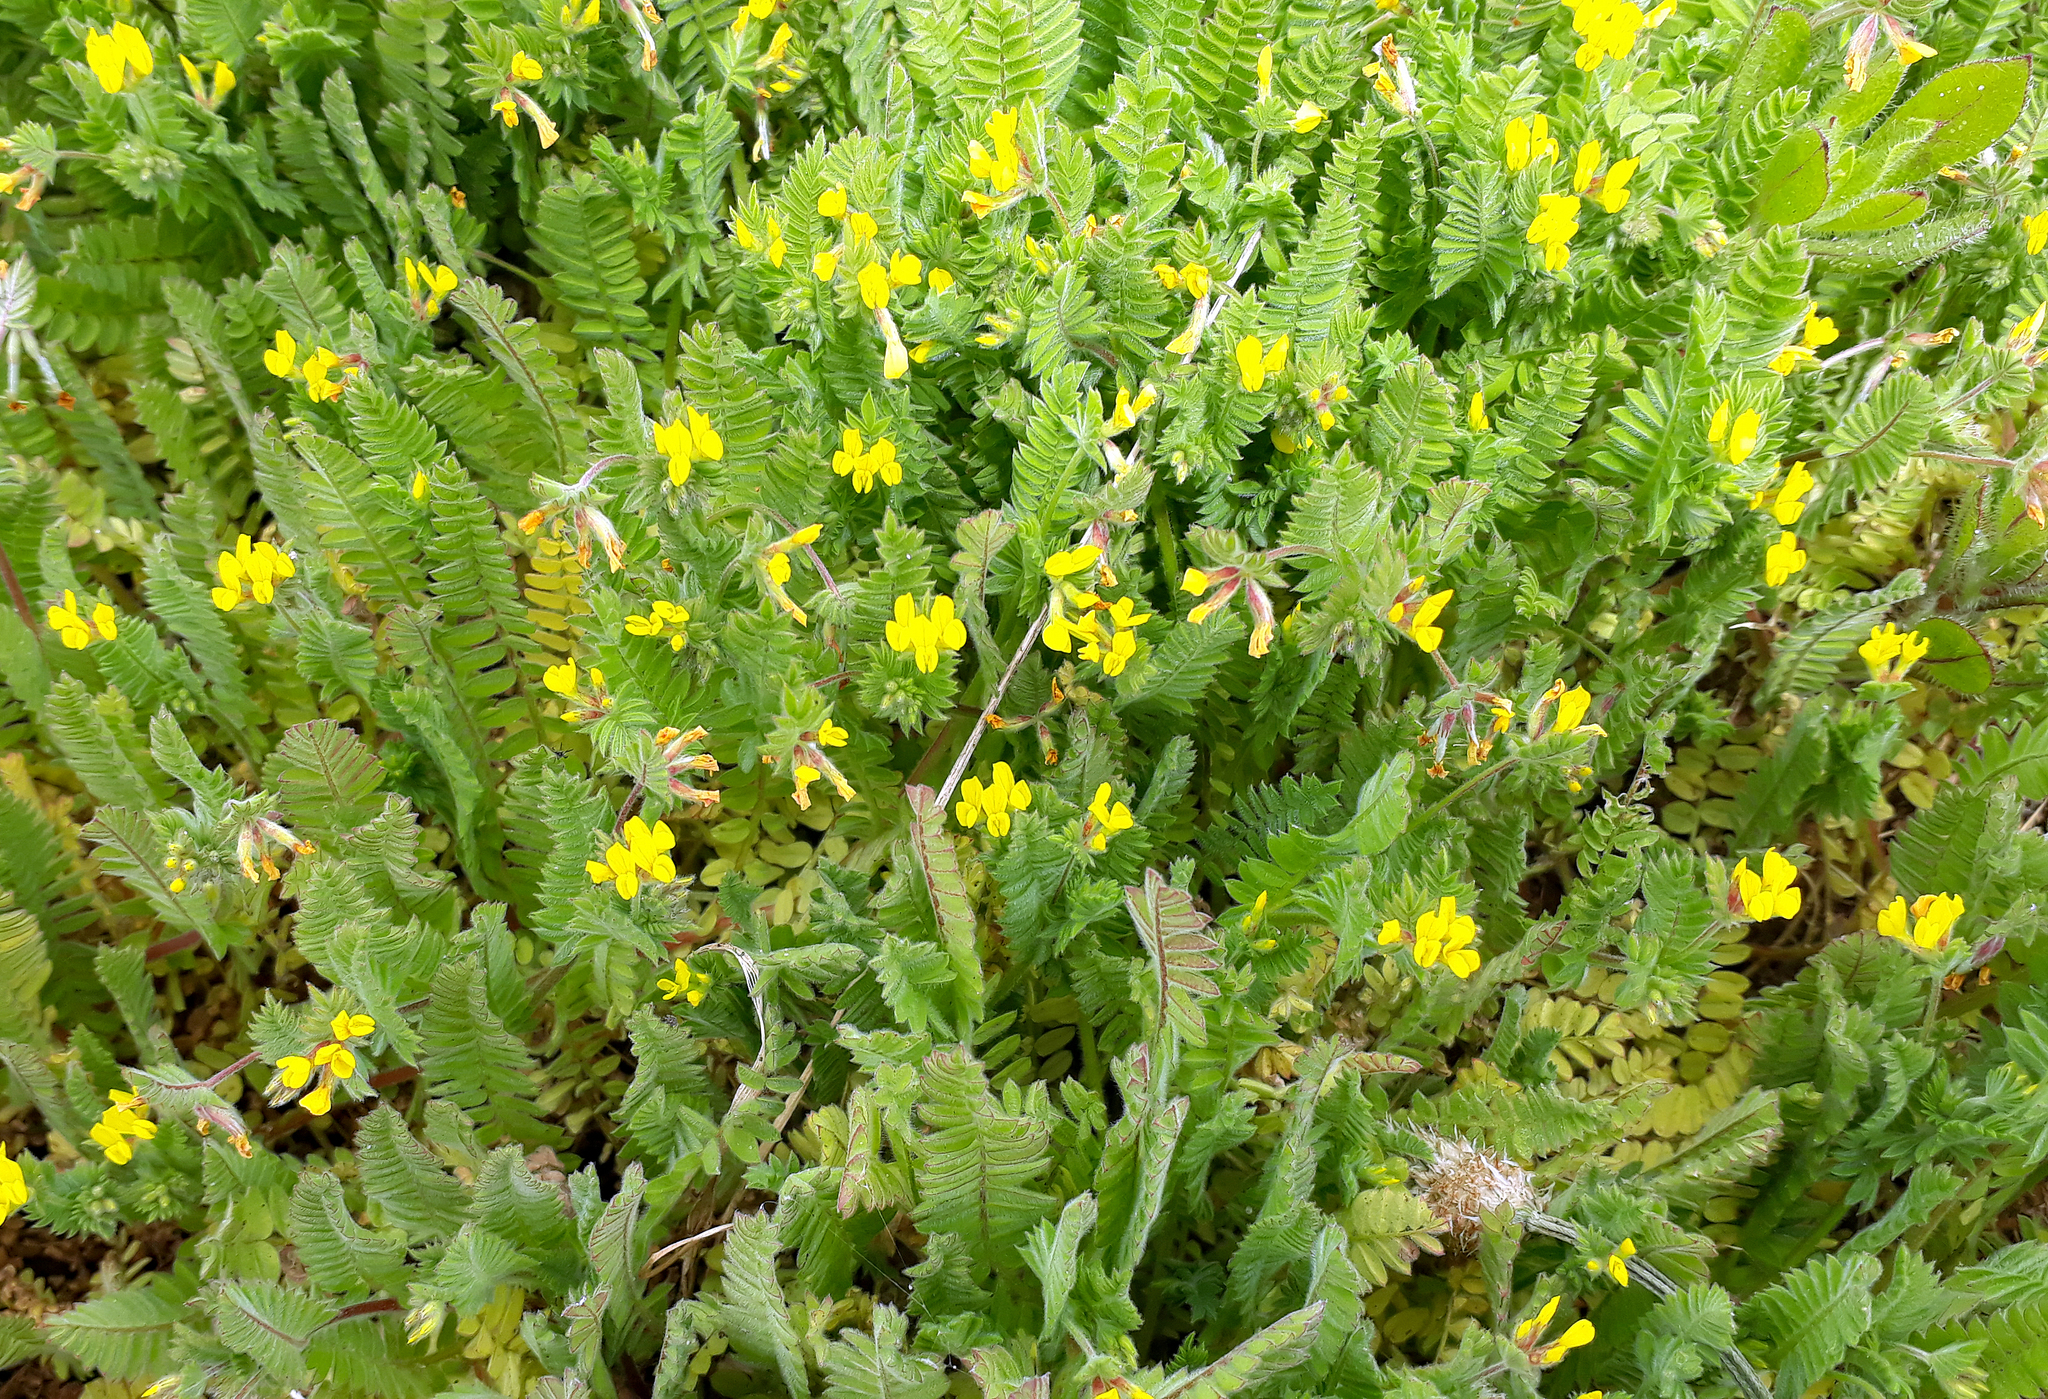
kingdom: Plantae
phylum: Tracheophyta
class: Magnoliopsida
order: Fabales
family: Fabaceae
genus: Ornithopus
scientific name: Ornithopus compressus
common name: Yellow serradella
